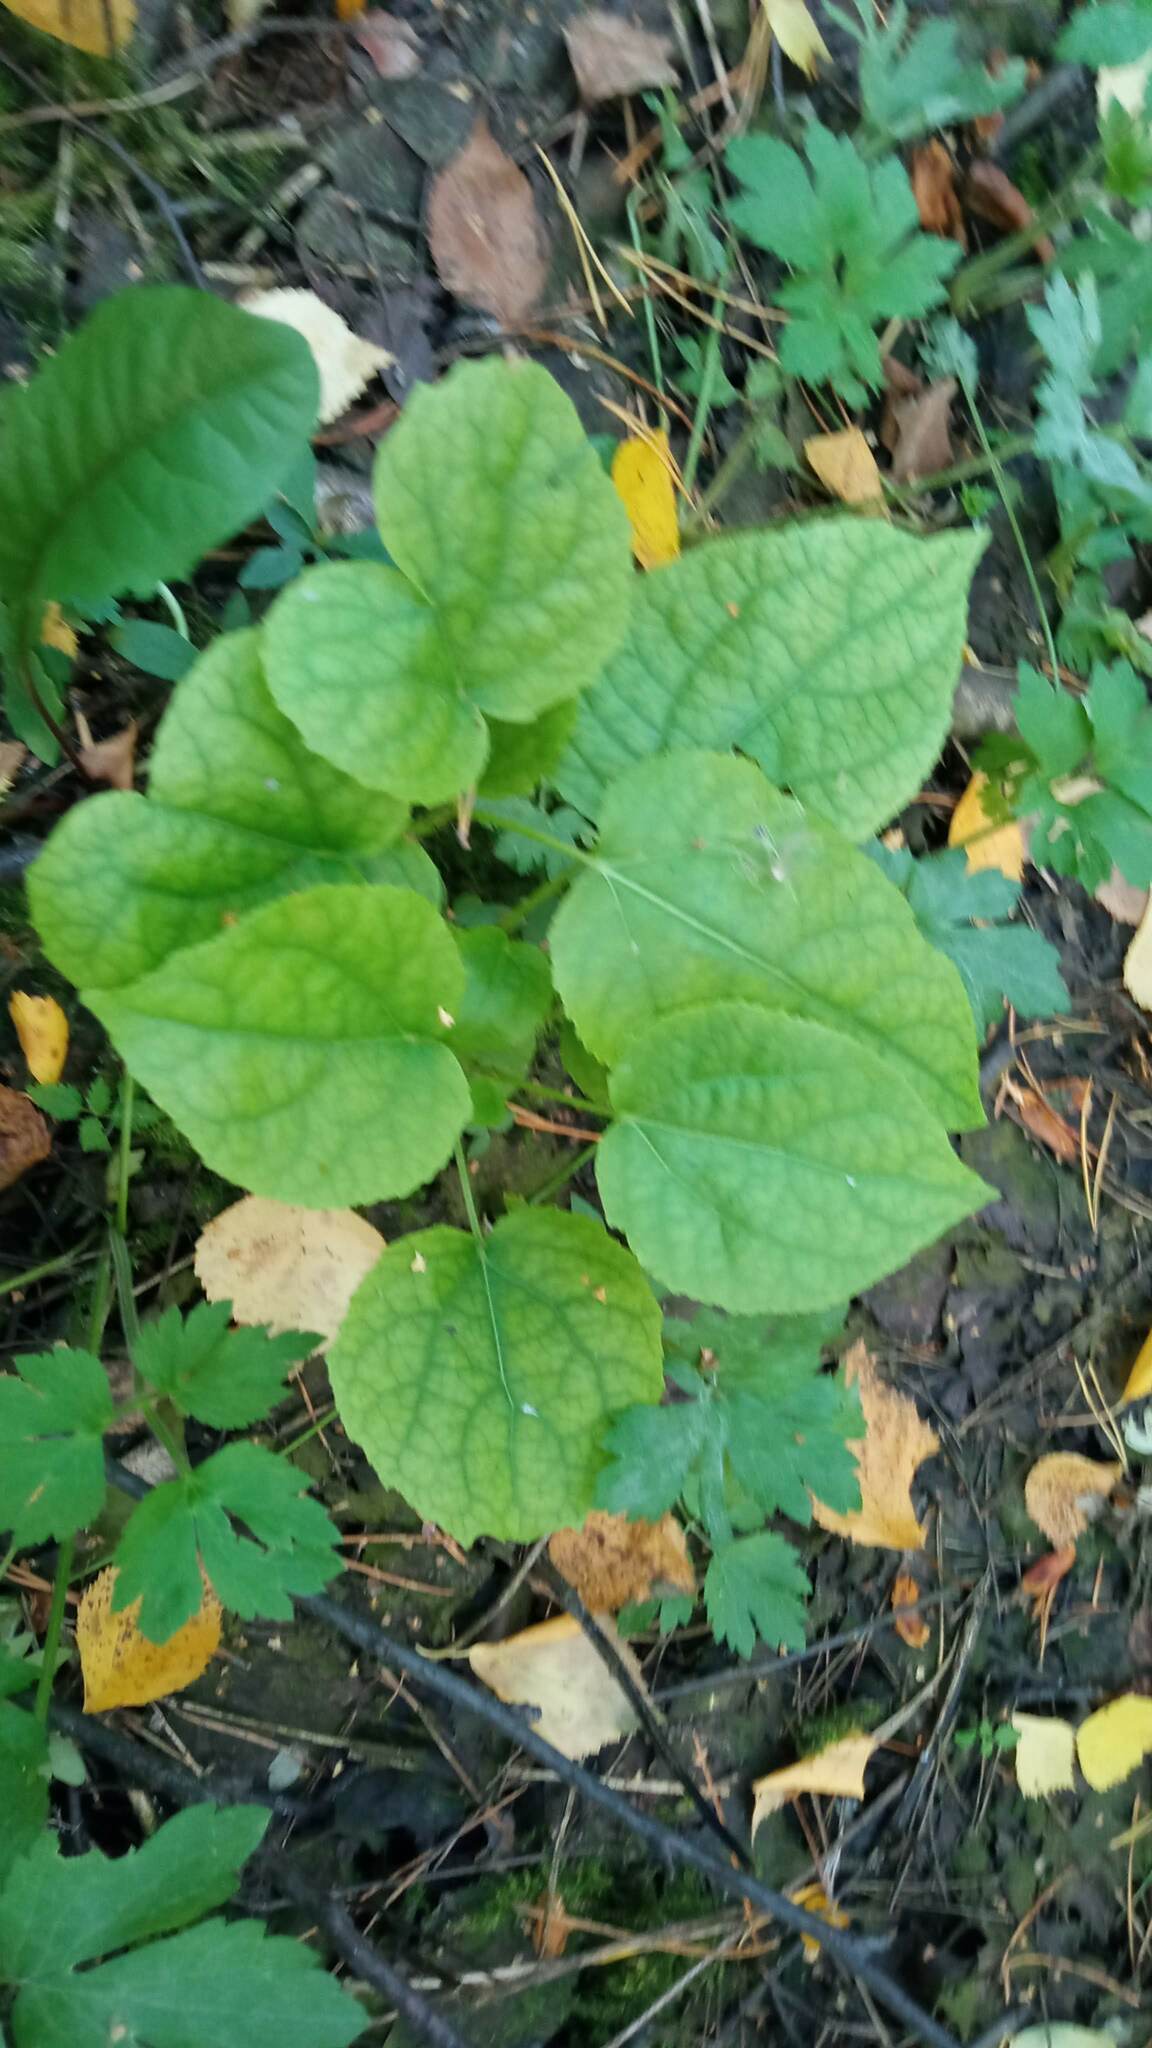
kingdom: Plantae
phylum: Tracheophyta
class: Magnoliopsida
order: Malpighiales
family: Salicaceae
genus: Populus
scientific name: Populus tremula
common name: European aspen
